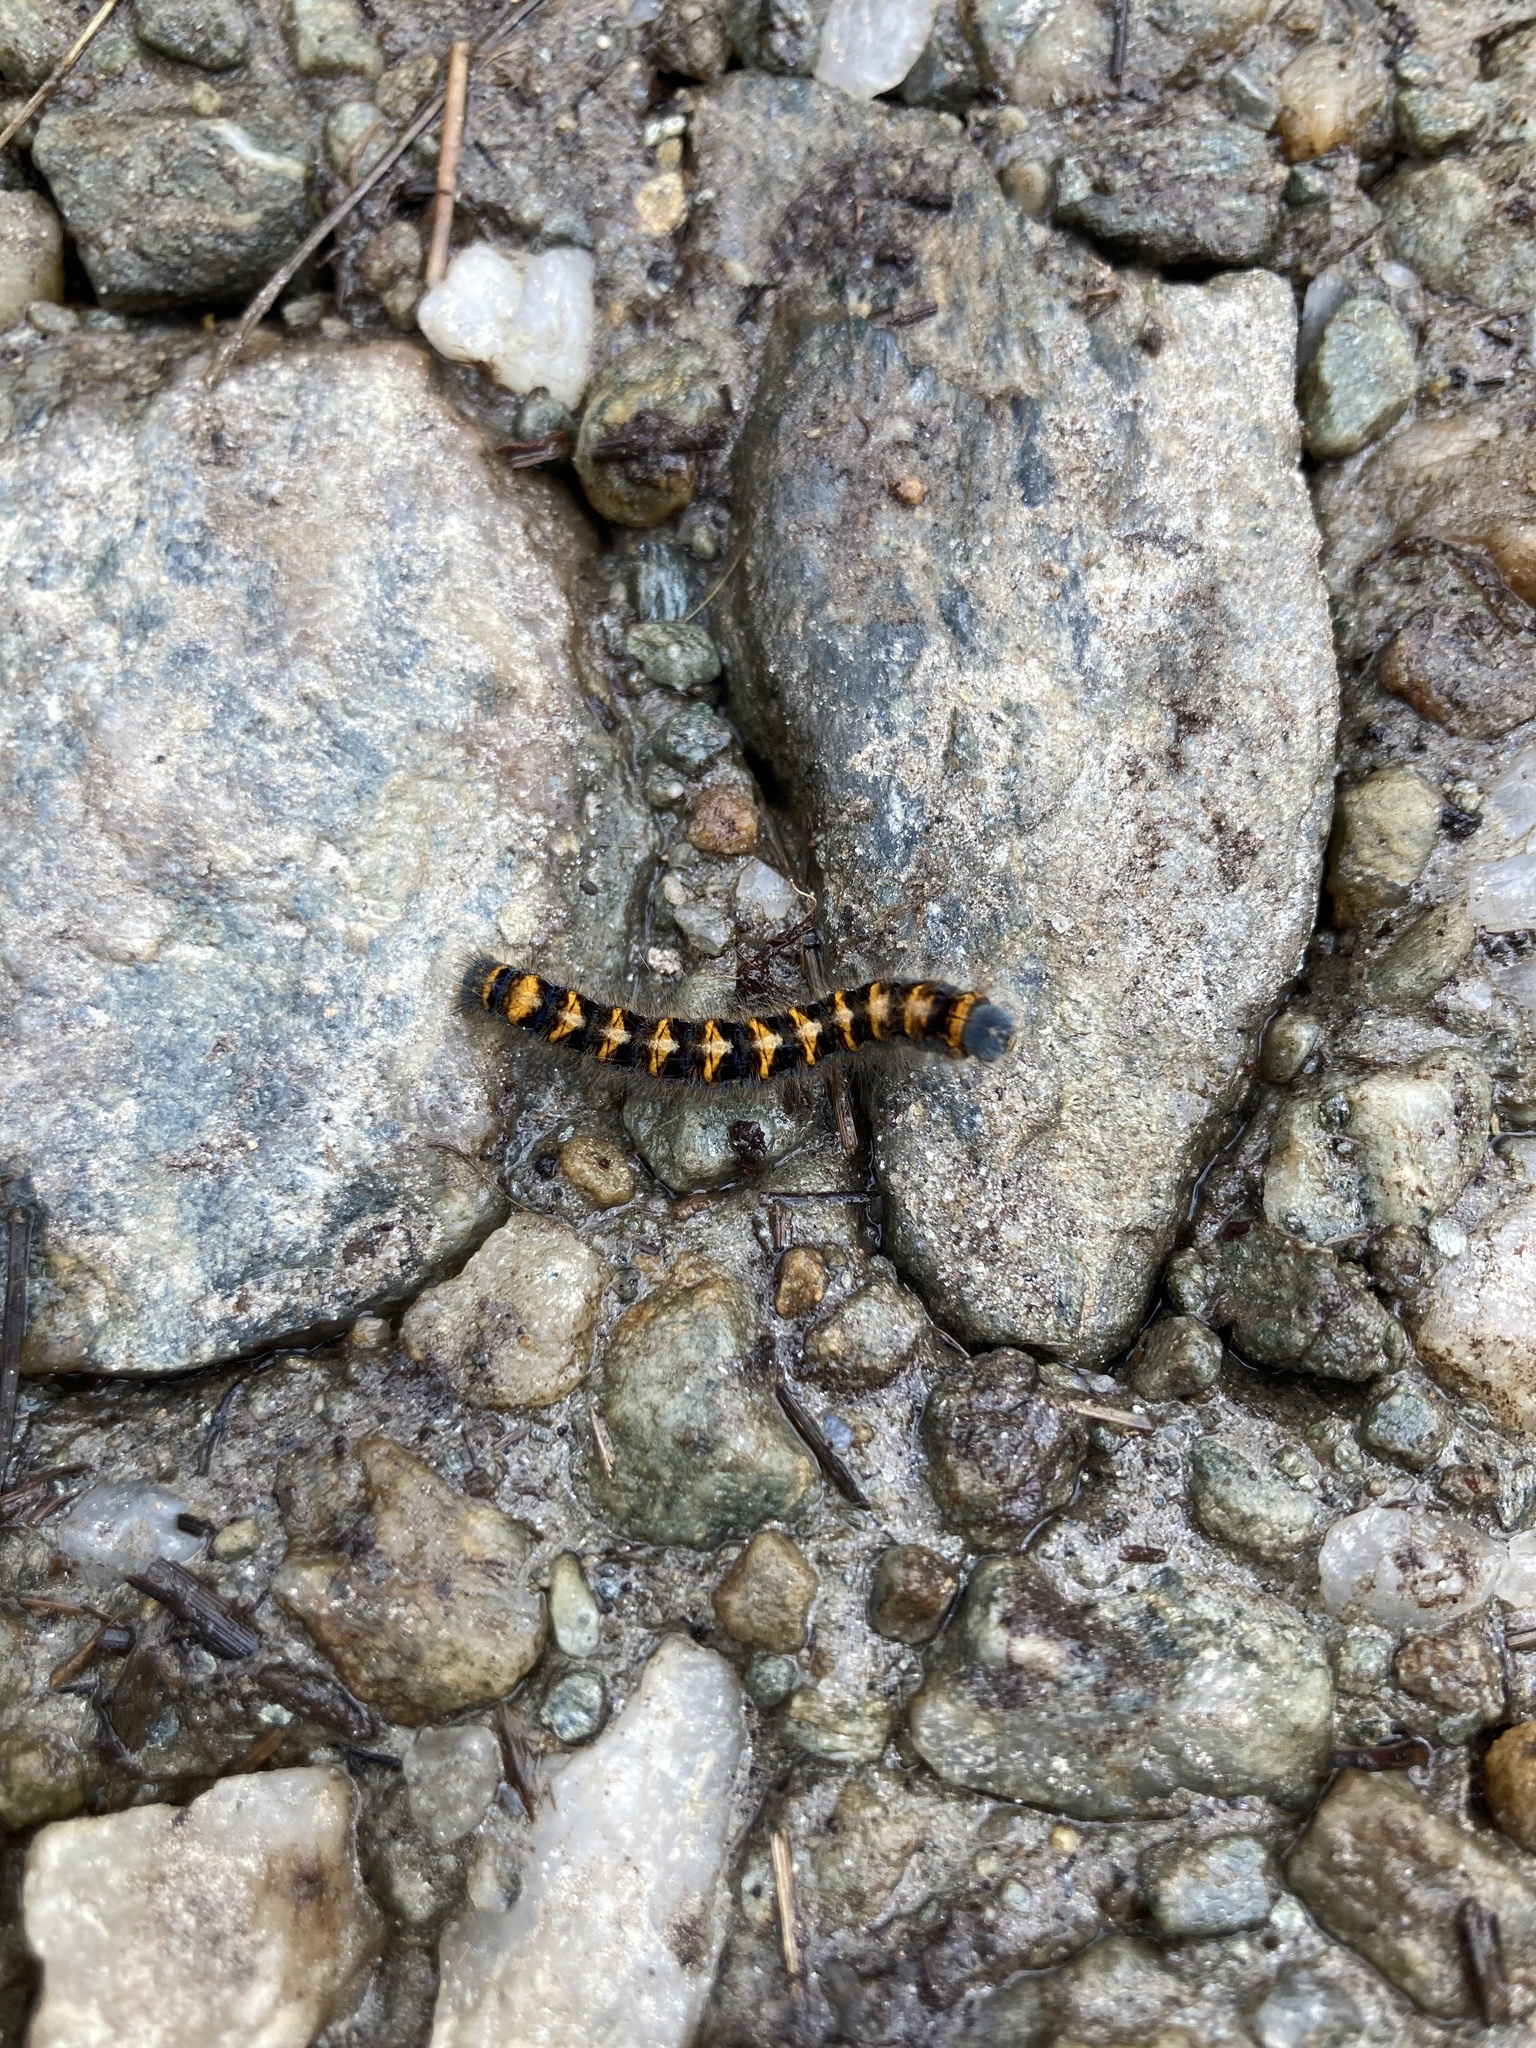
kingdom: Animalia
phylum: Arthropoda
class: Insecta
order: Lepidoptera
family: Lasiocampidae
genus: Lasiocampa
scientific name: Lasiocampa quercus
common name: Oak eggar
